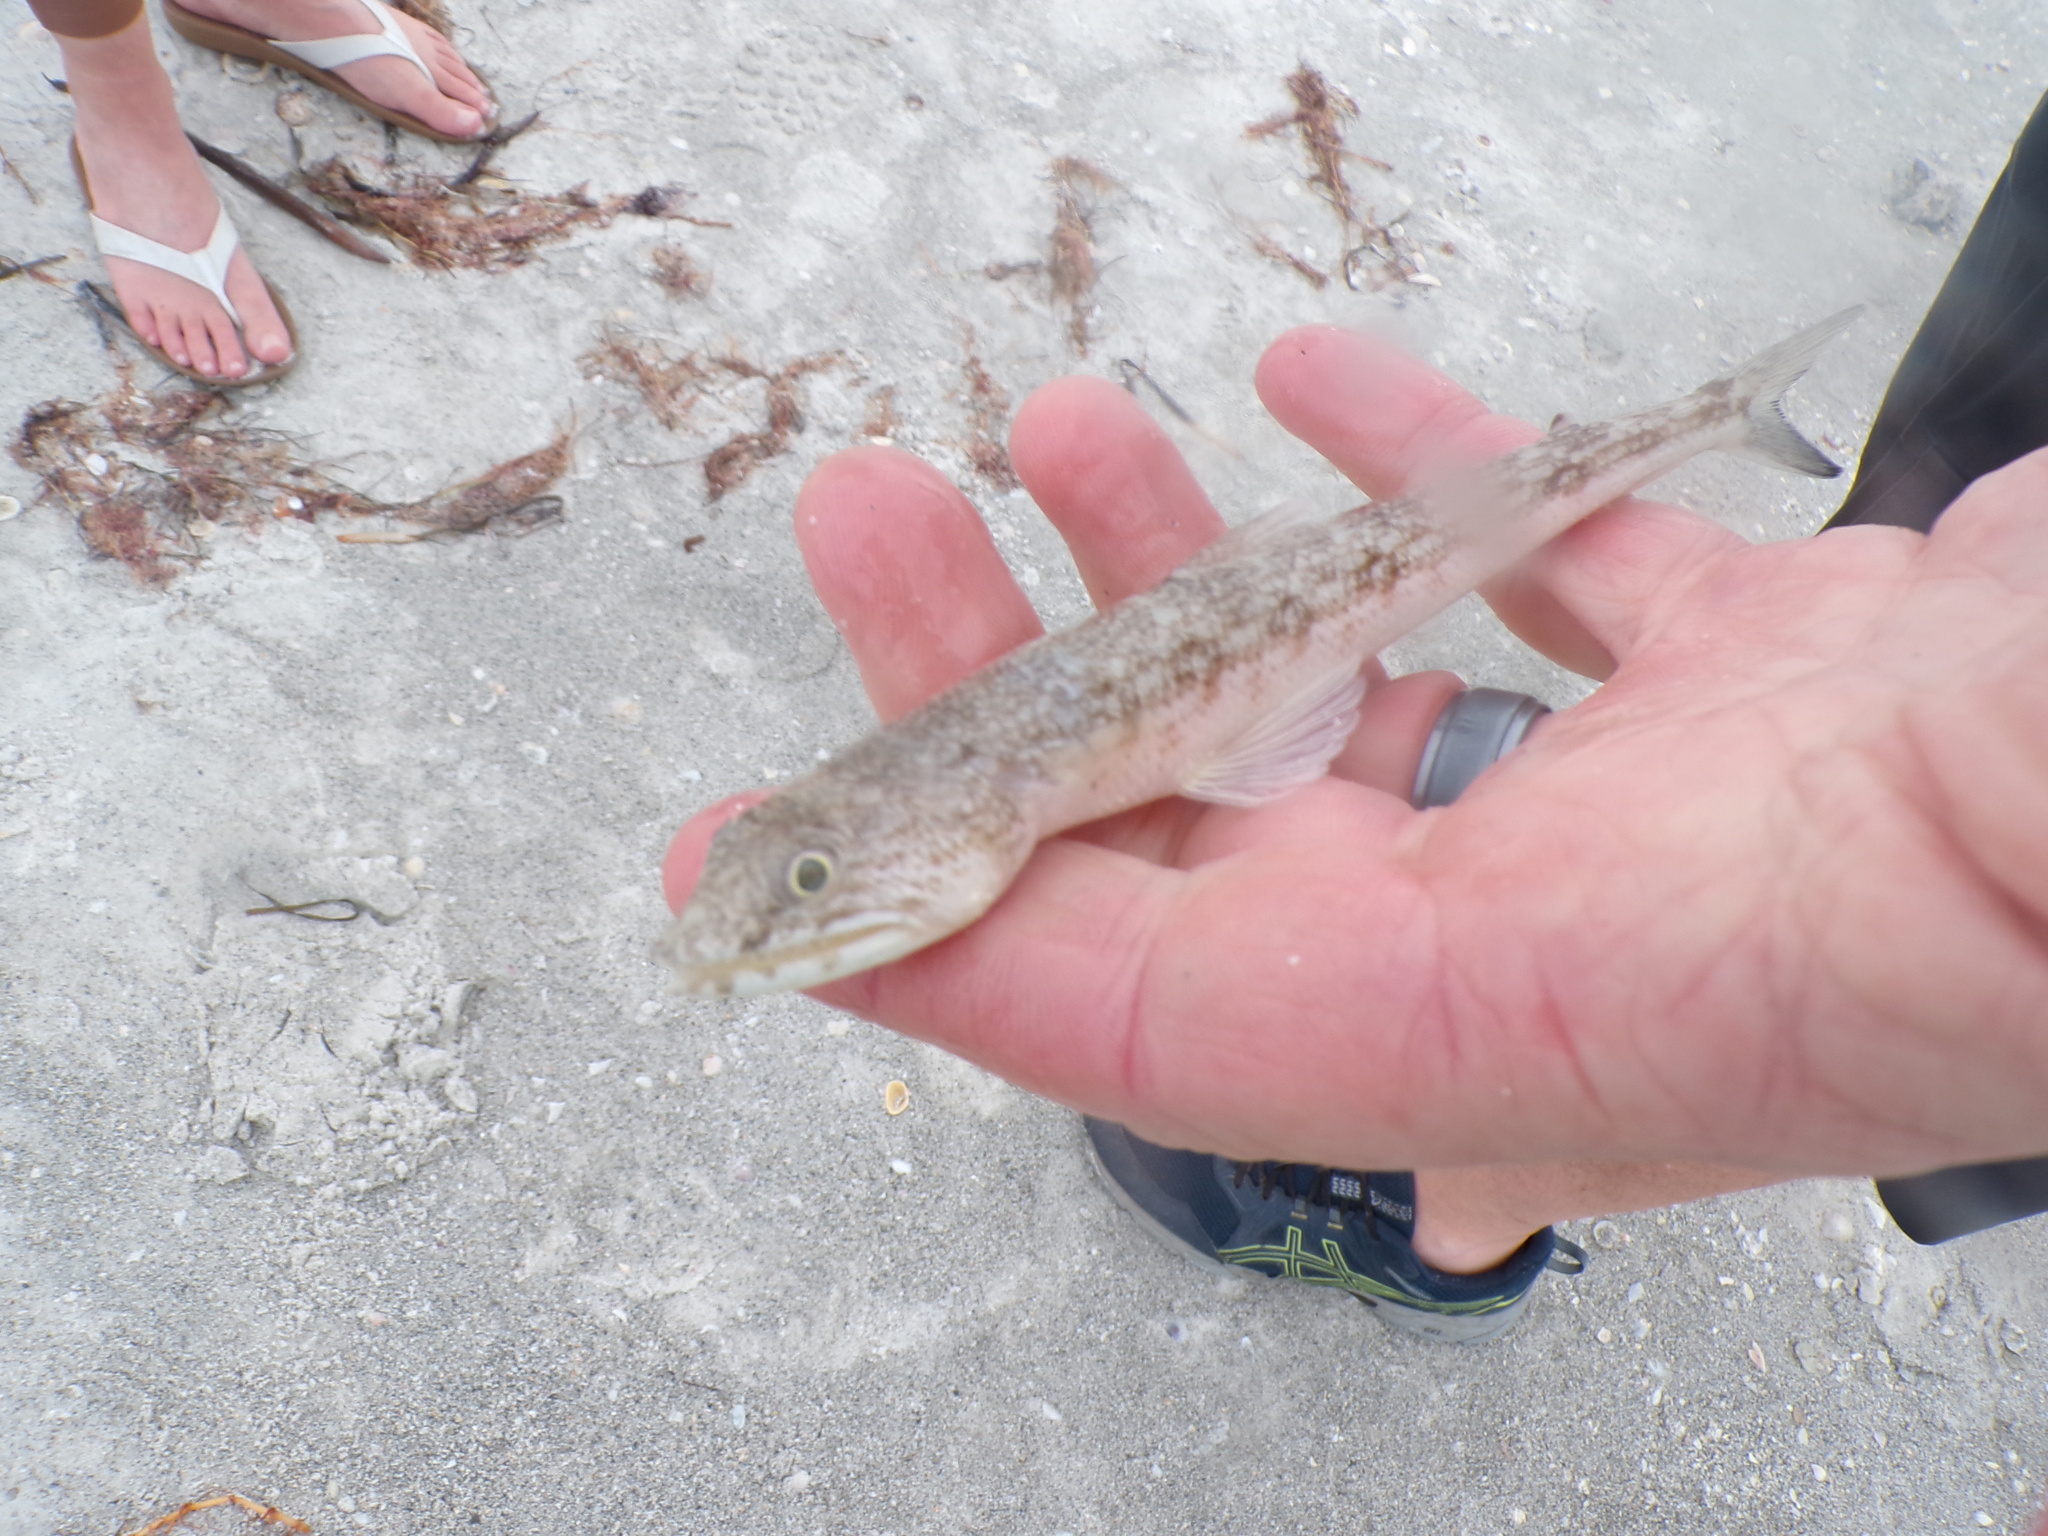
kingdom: Animalia
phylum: Chordata
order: Aulopiformes
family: Synodontidae
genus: Synodus
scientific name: Synodus foetens
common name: Inshore lizardfish
